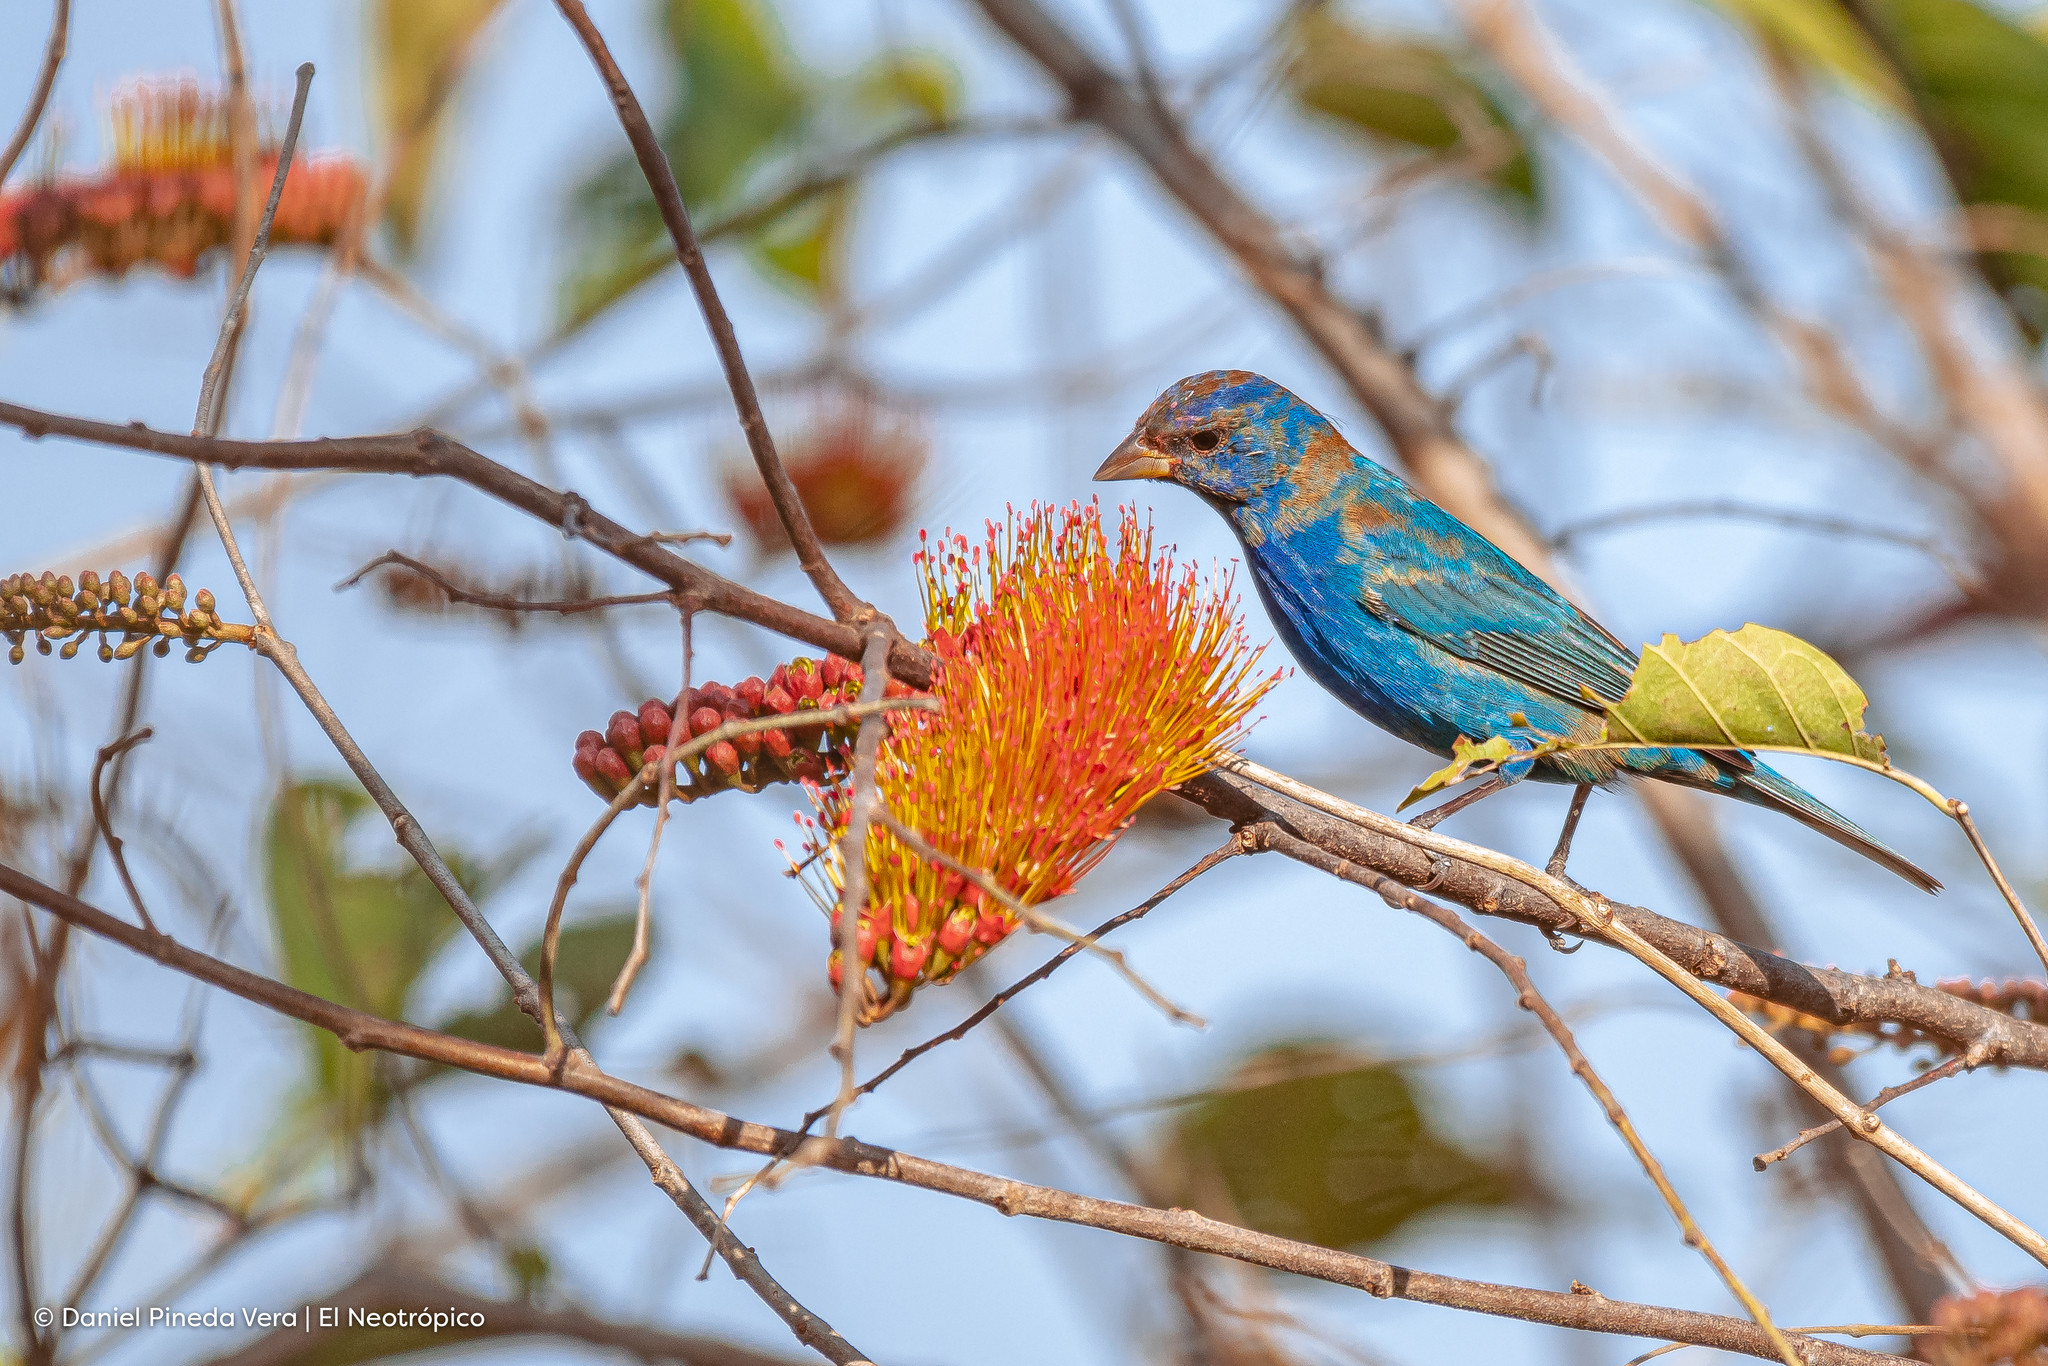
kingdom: Animalia
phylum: Chordata
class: Aves
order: Passeriformes
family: Cardinalidae
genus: Passerina
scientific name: Passerina cyanea
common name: Indigo bunting
